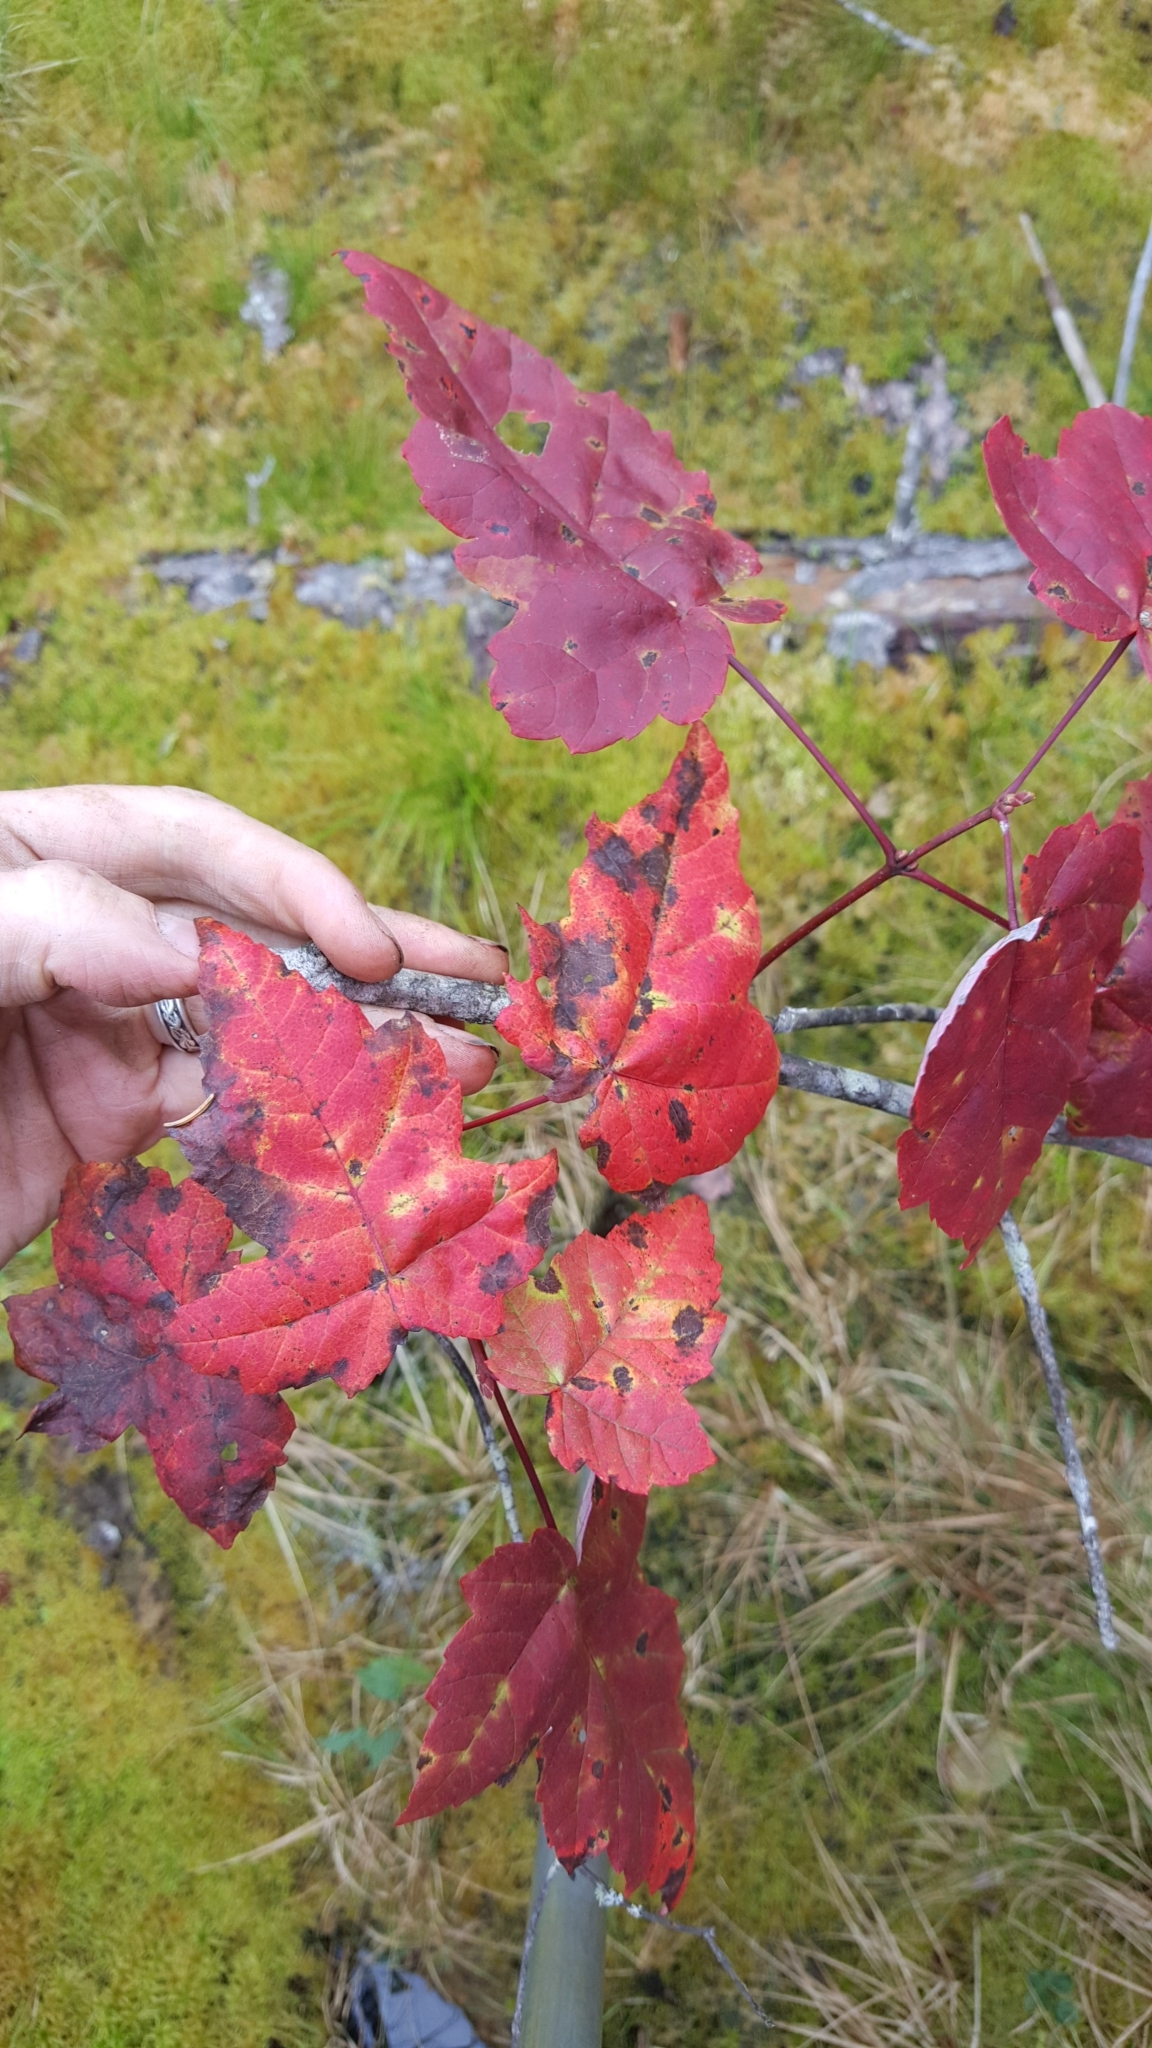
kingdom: Plantae
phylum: Tracheophyta
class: Magnoliopsida
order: Sapindales
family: Sapindaceae
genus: Acer
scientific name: Acer rubrum
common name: Red maple
